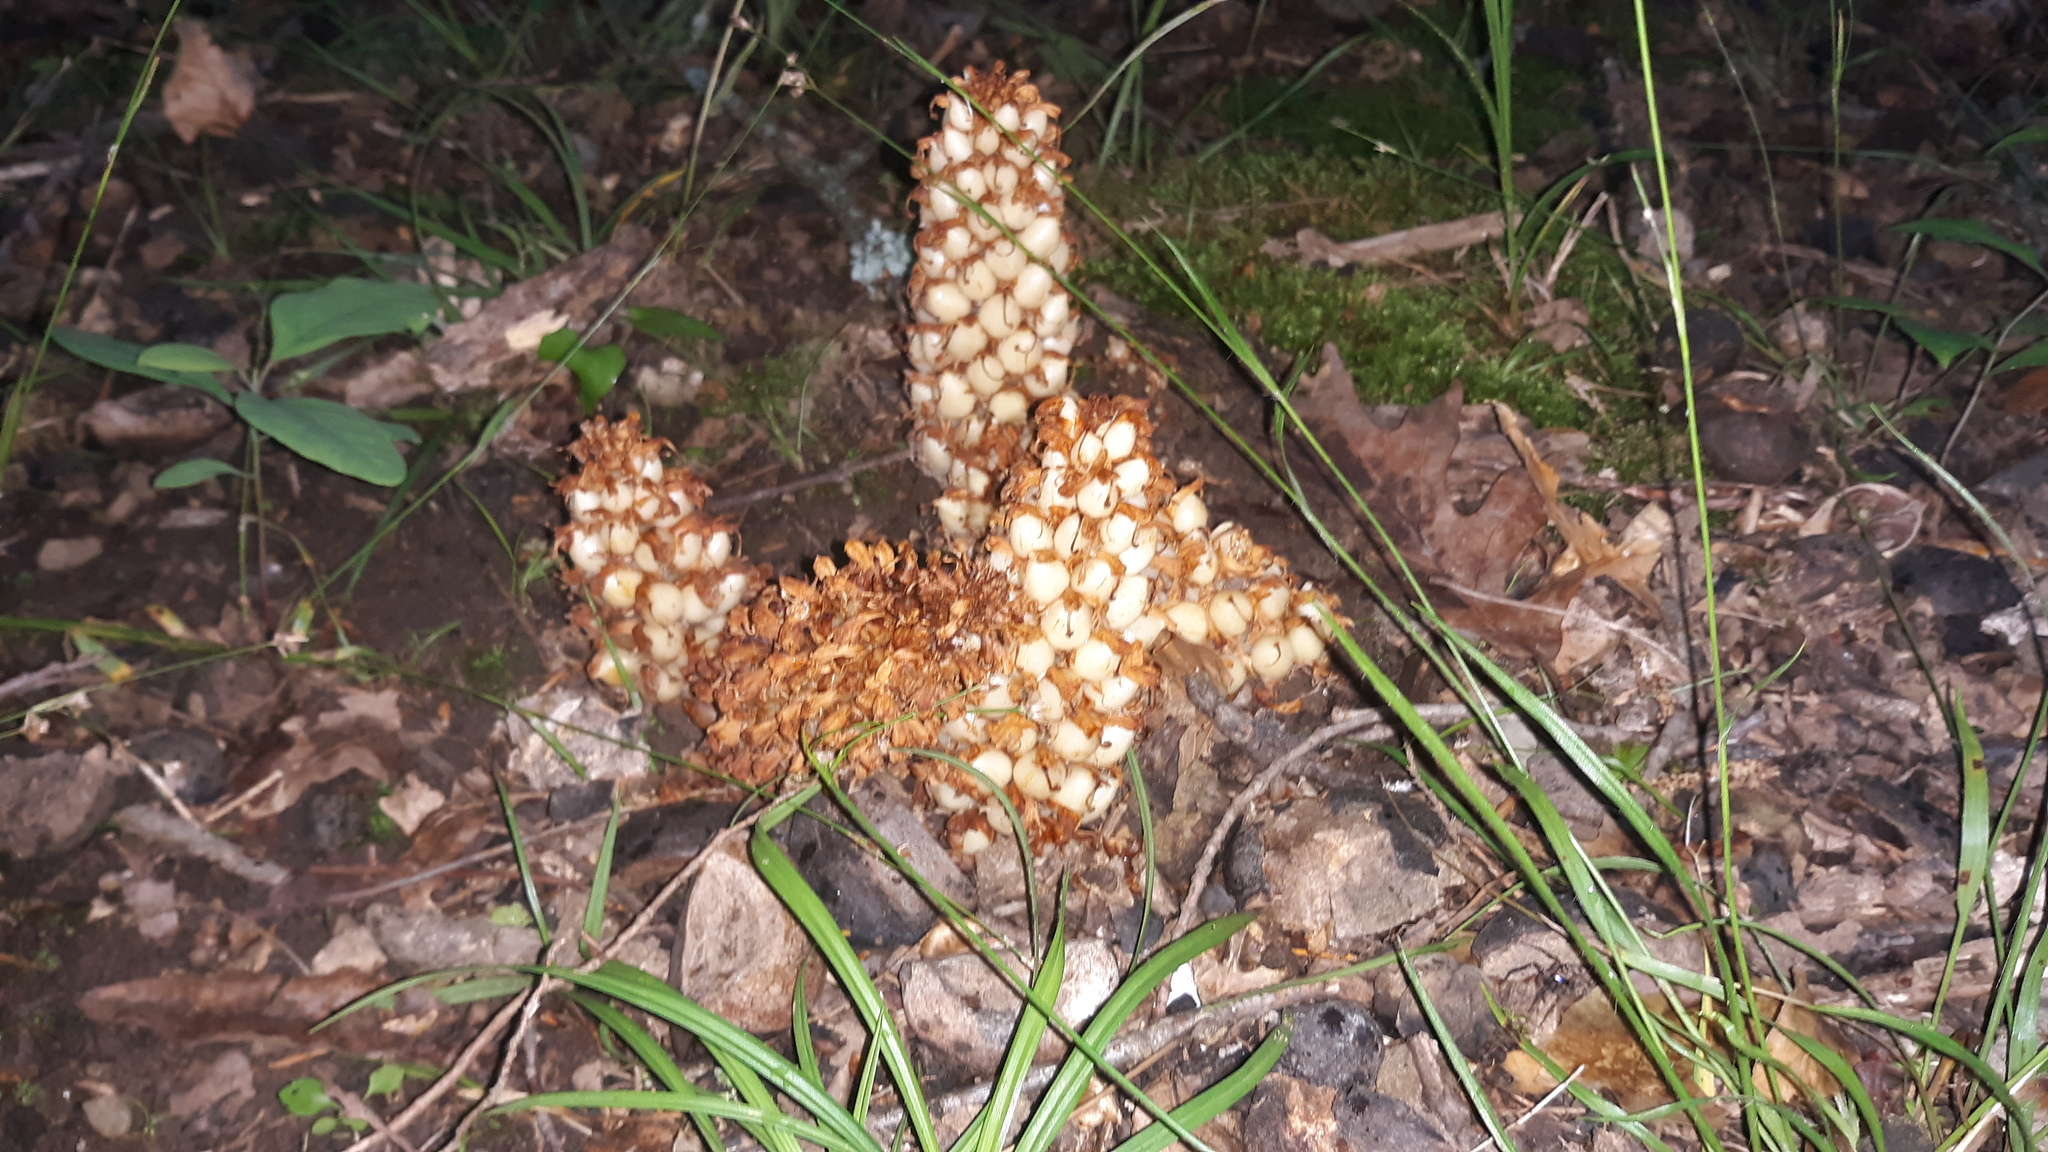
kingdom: Plantae
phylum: Tracheophyta
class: Magnoliopsida
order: Lamiales
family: Orobanchaceae
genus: Conopholis
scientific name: Conopholis americana
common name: American cancer-root
